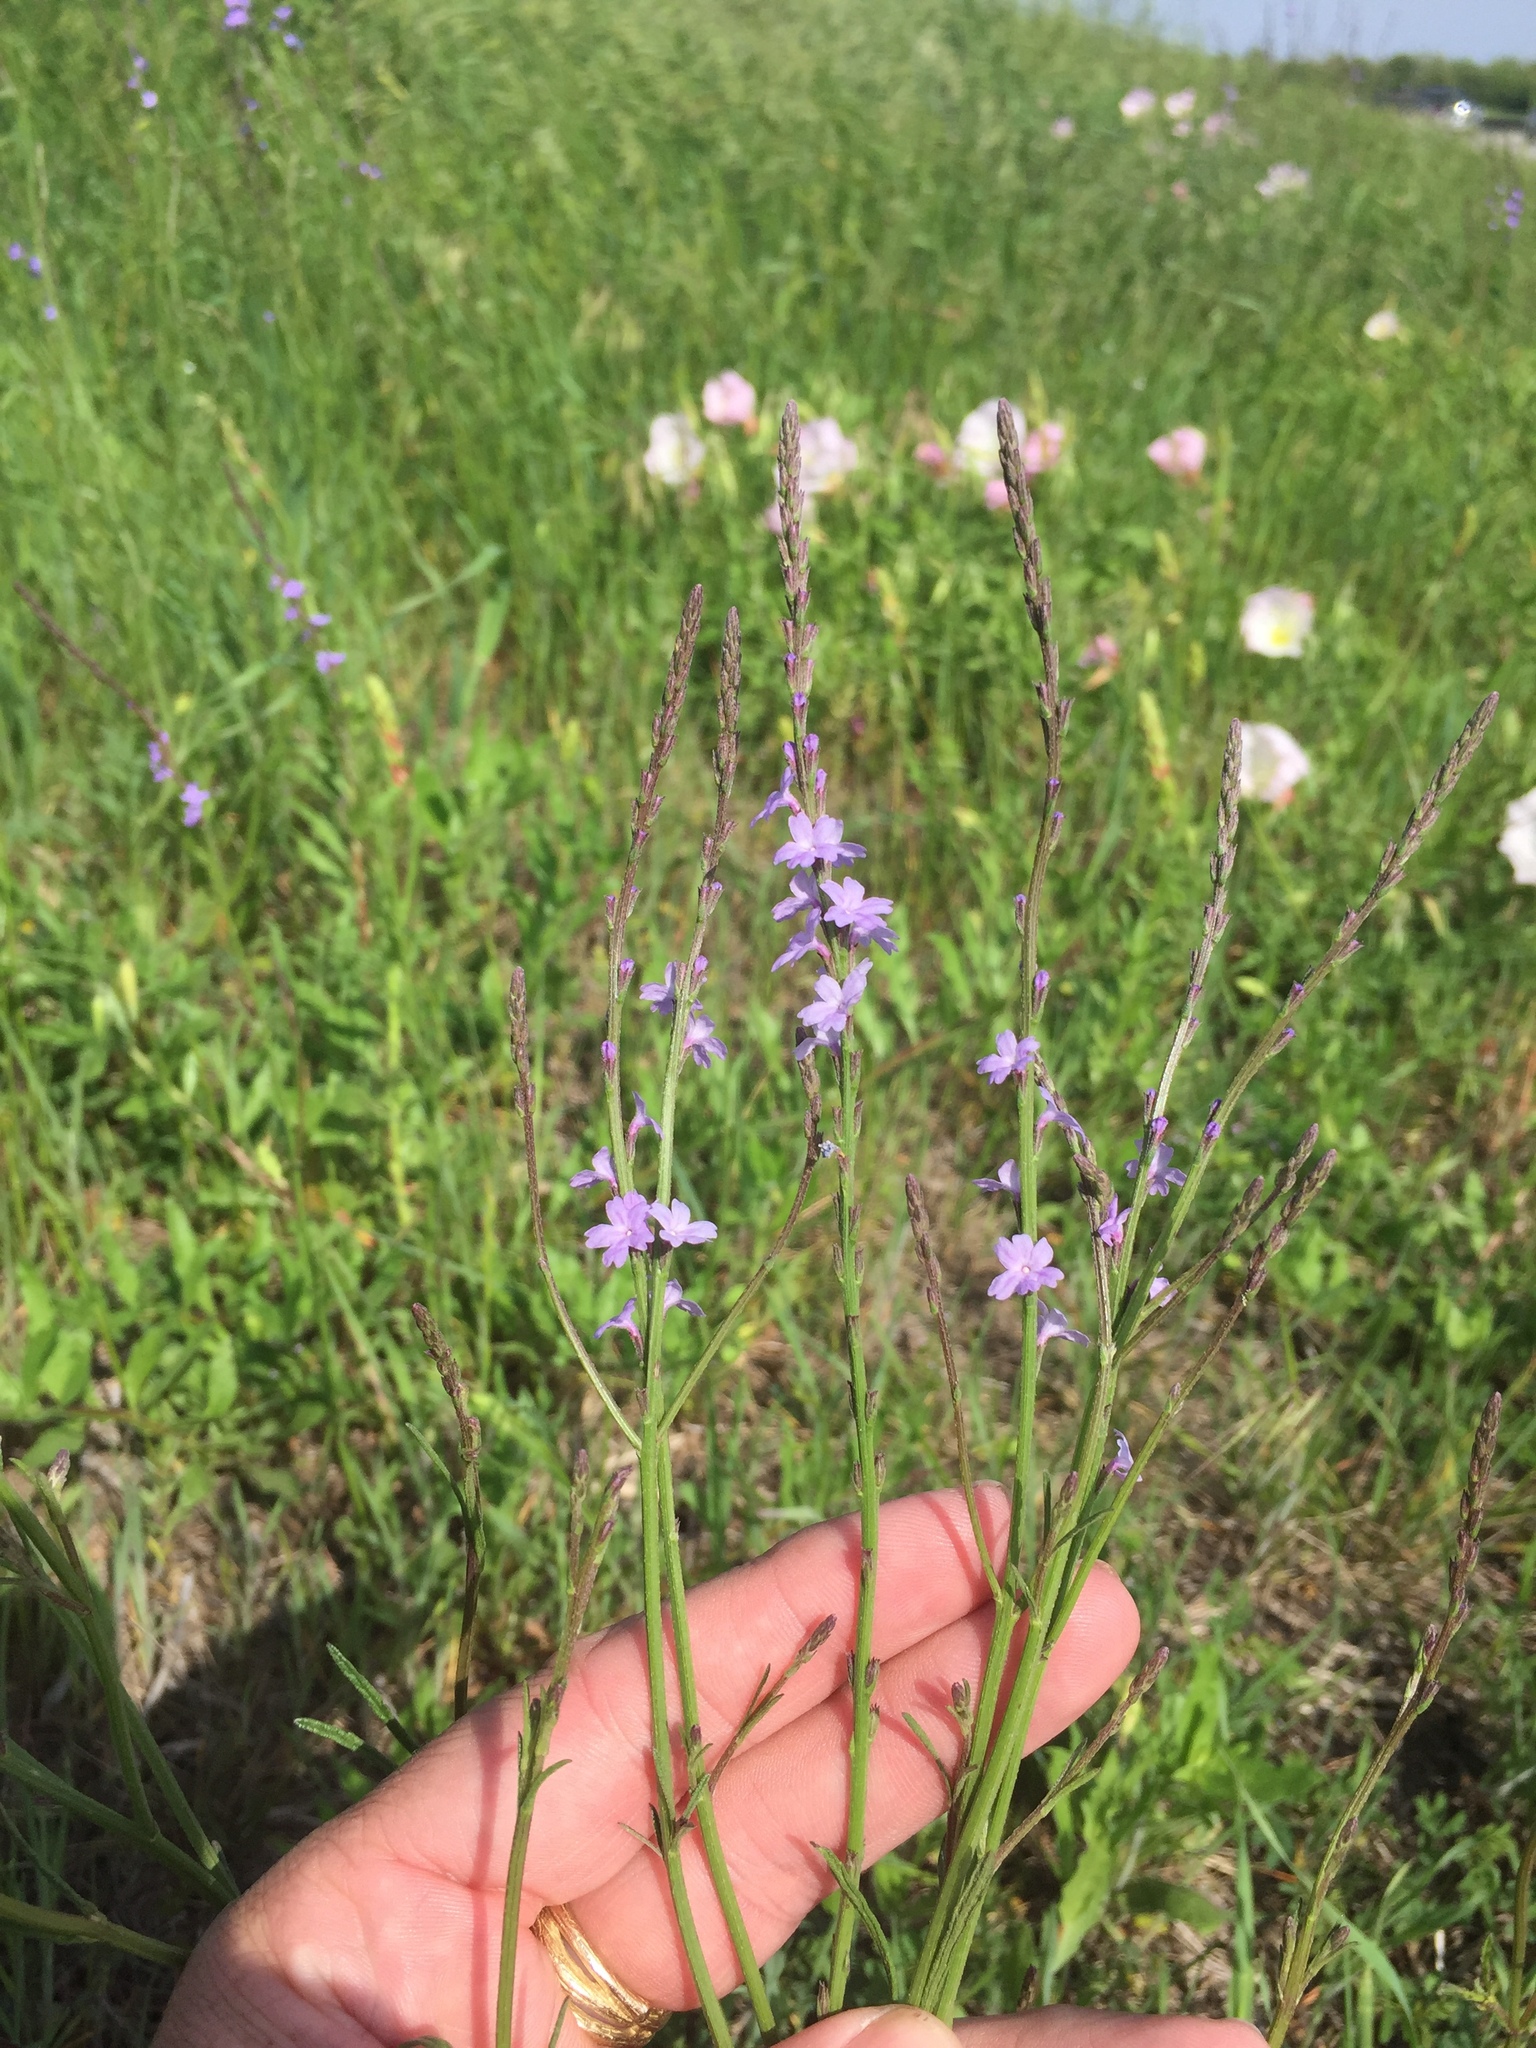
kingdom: Plantae
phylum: Tracheophyta
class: Magnoliopsida
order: Lamiales
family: Verbenaceae
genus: Verbena
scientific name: Verbena halei
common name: Texas vervain
